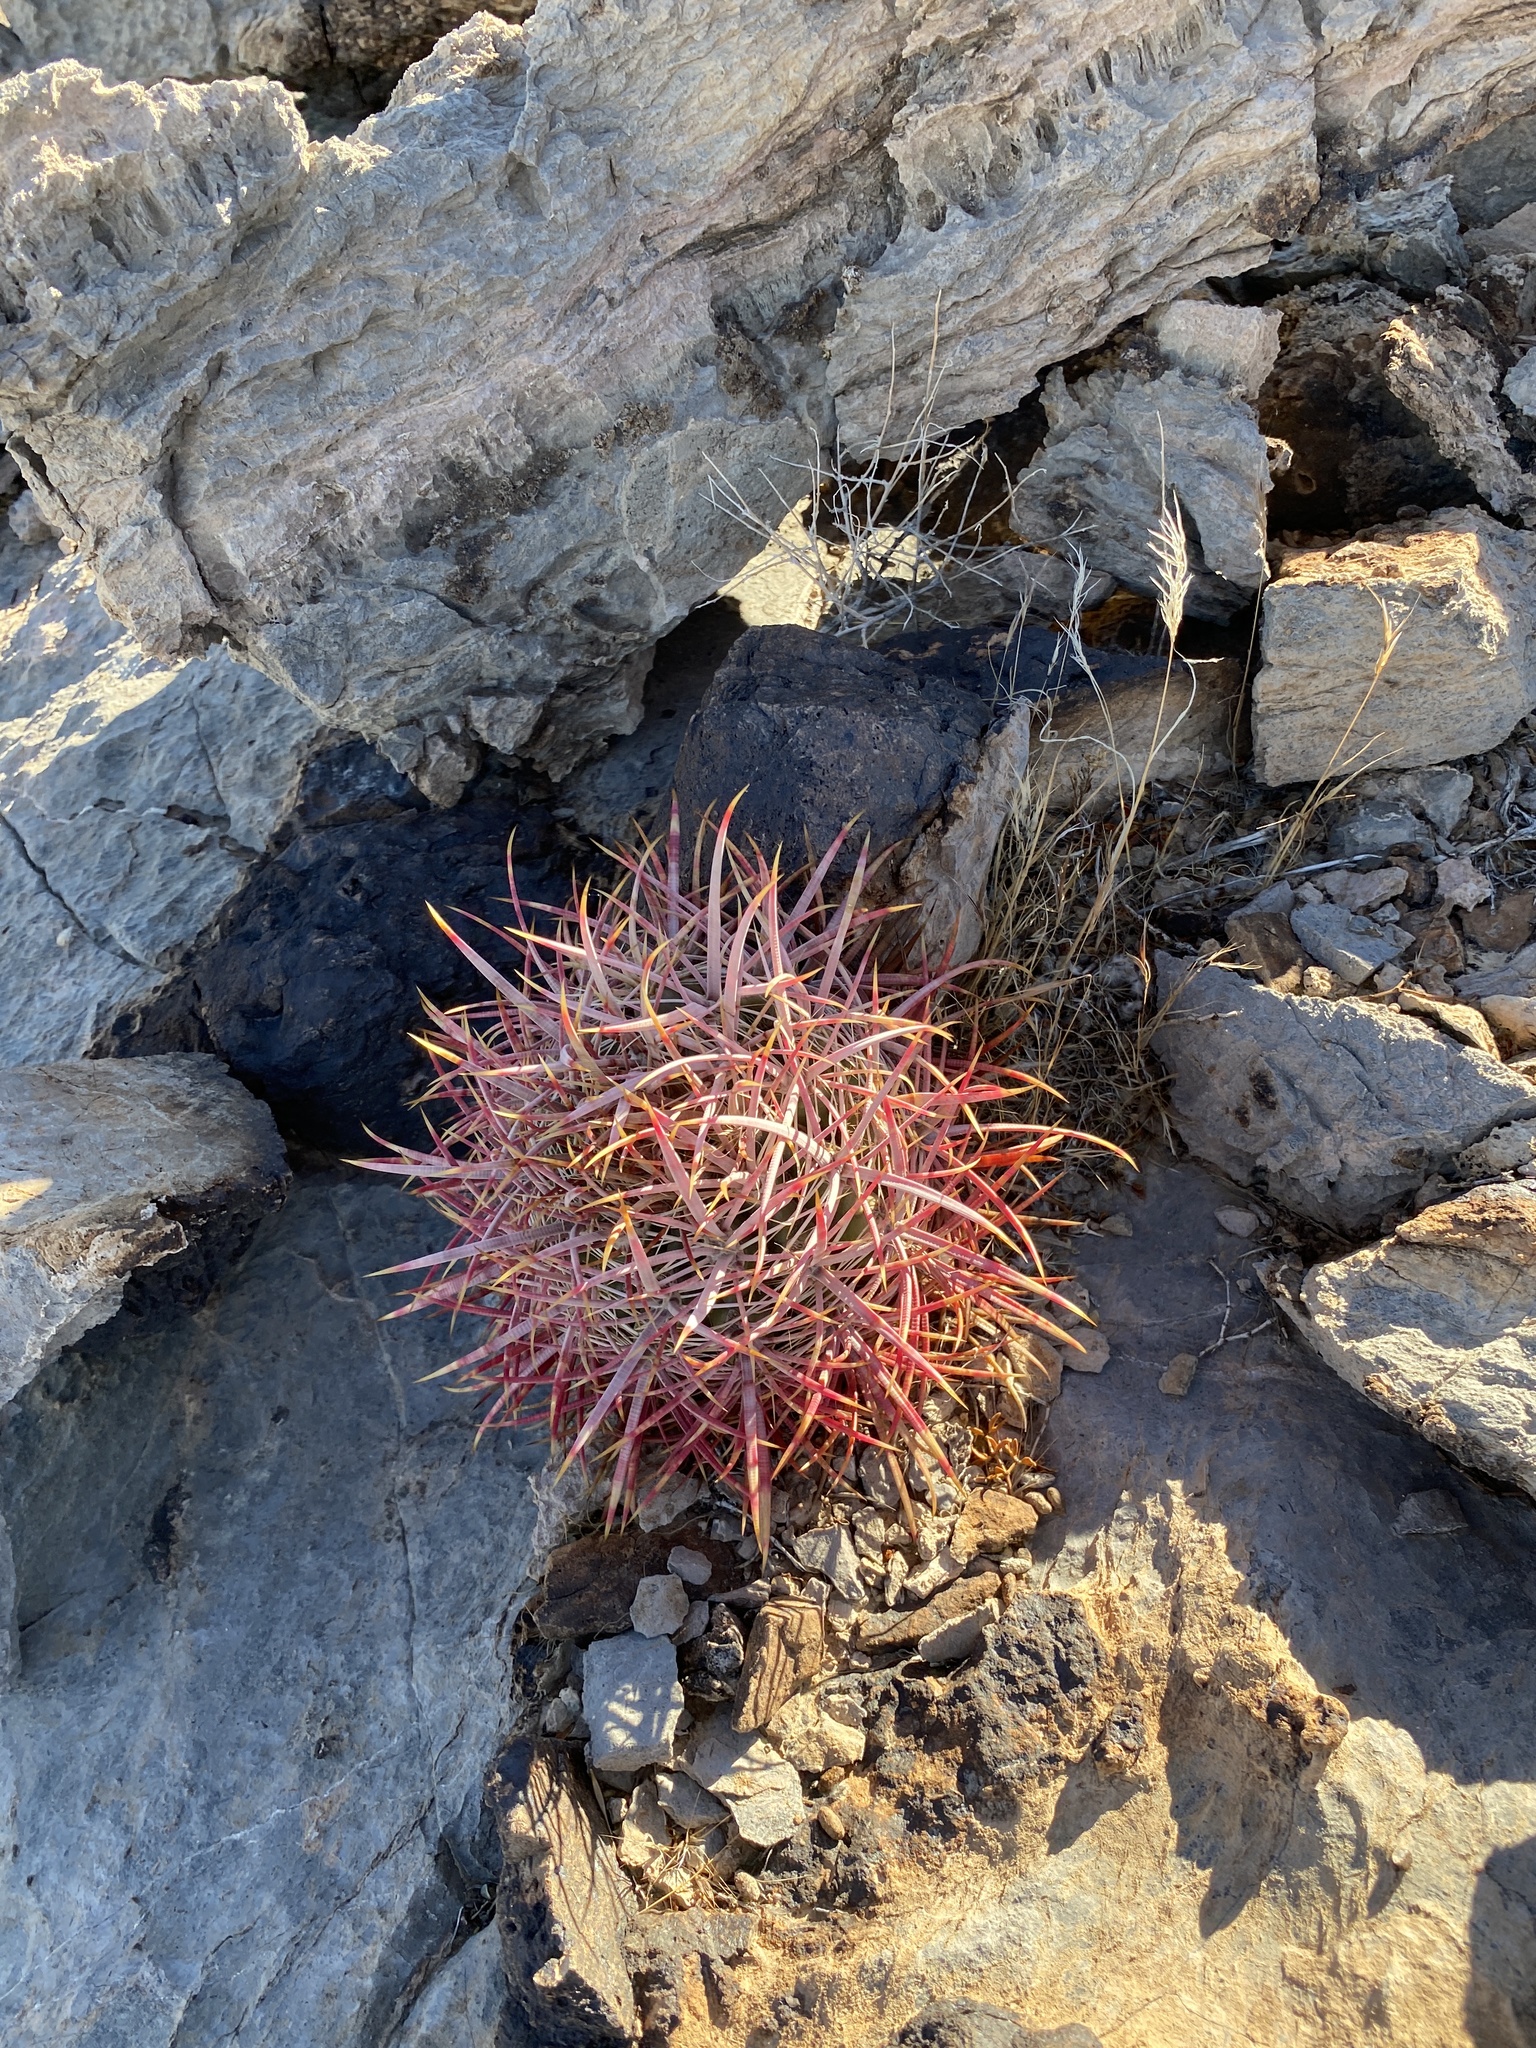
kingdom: Plantae
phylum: Tracheophyta
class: Magnoliopsida
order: Caryophyllales
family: Cactaceae
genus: Ferocactus
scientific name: Ferocactus cylindraceus
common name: California barrel cactus
